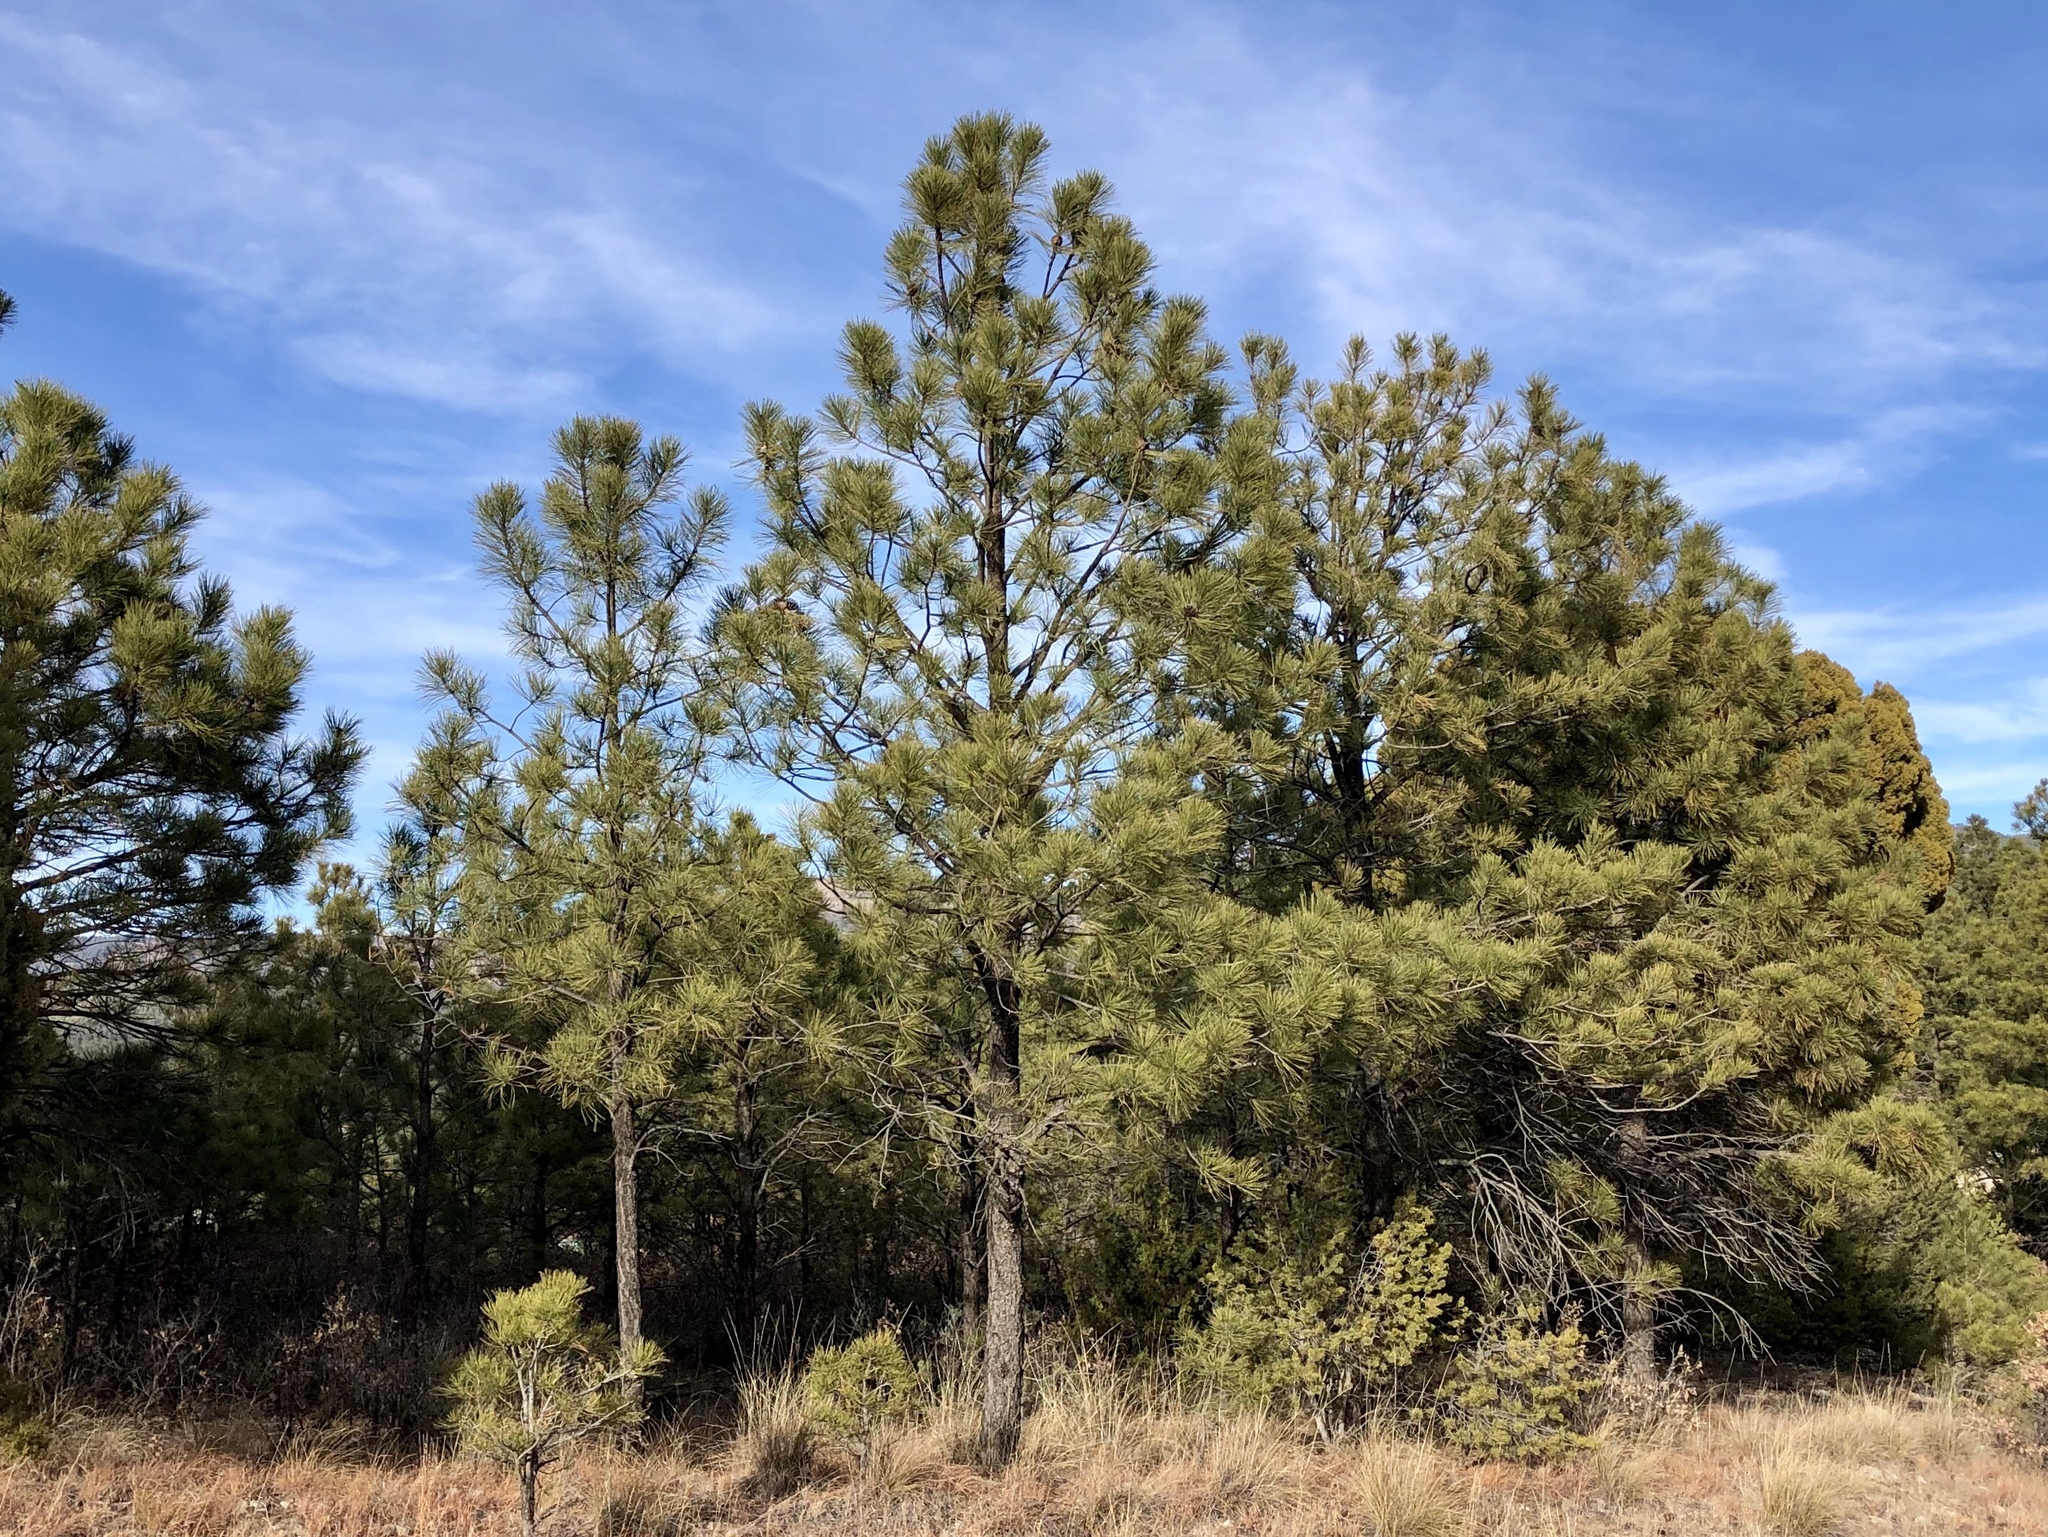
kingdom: Plantae
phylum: Tracheophyta
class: Pinopsida
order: Pinales
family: Pinaceae
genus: Pinus
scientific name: Pinus ponderosa
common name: Western yellow-pine
